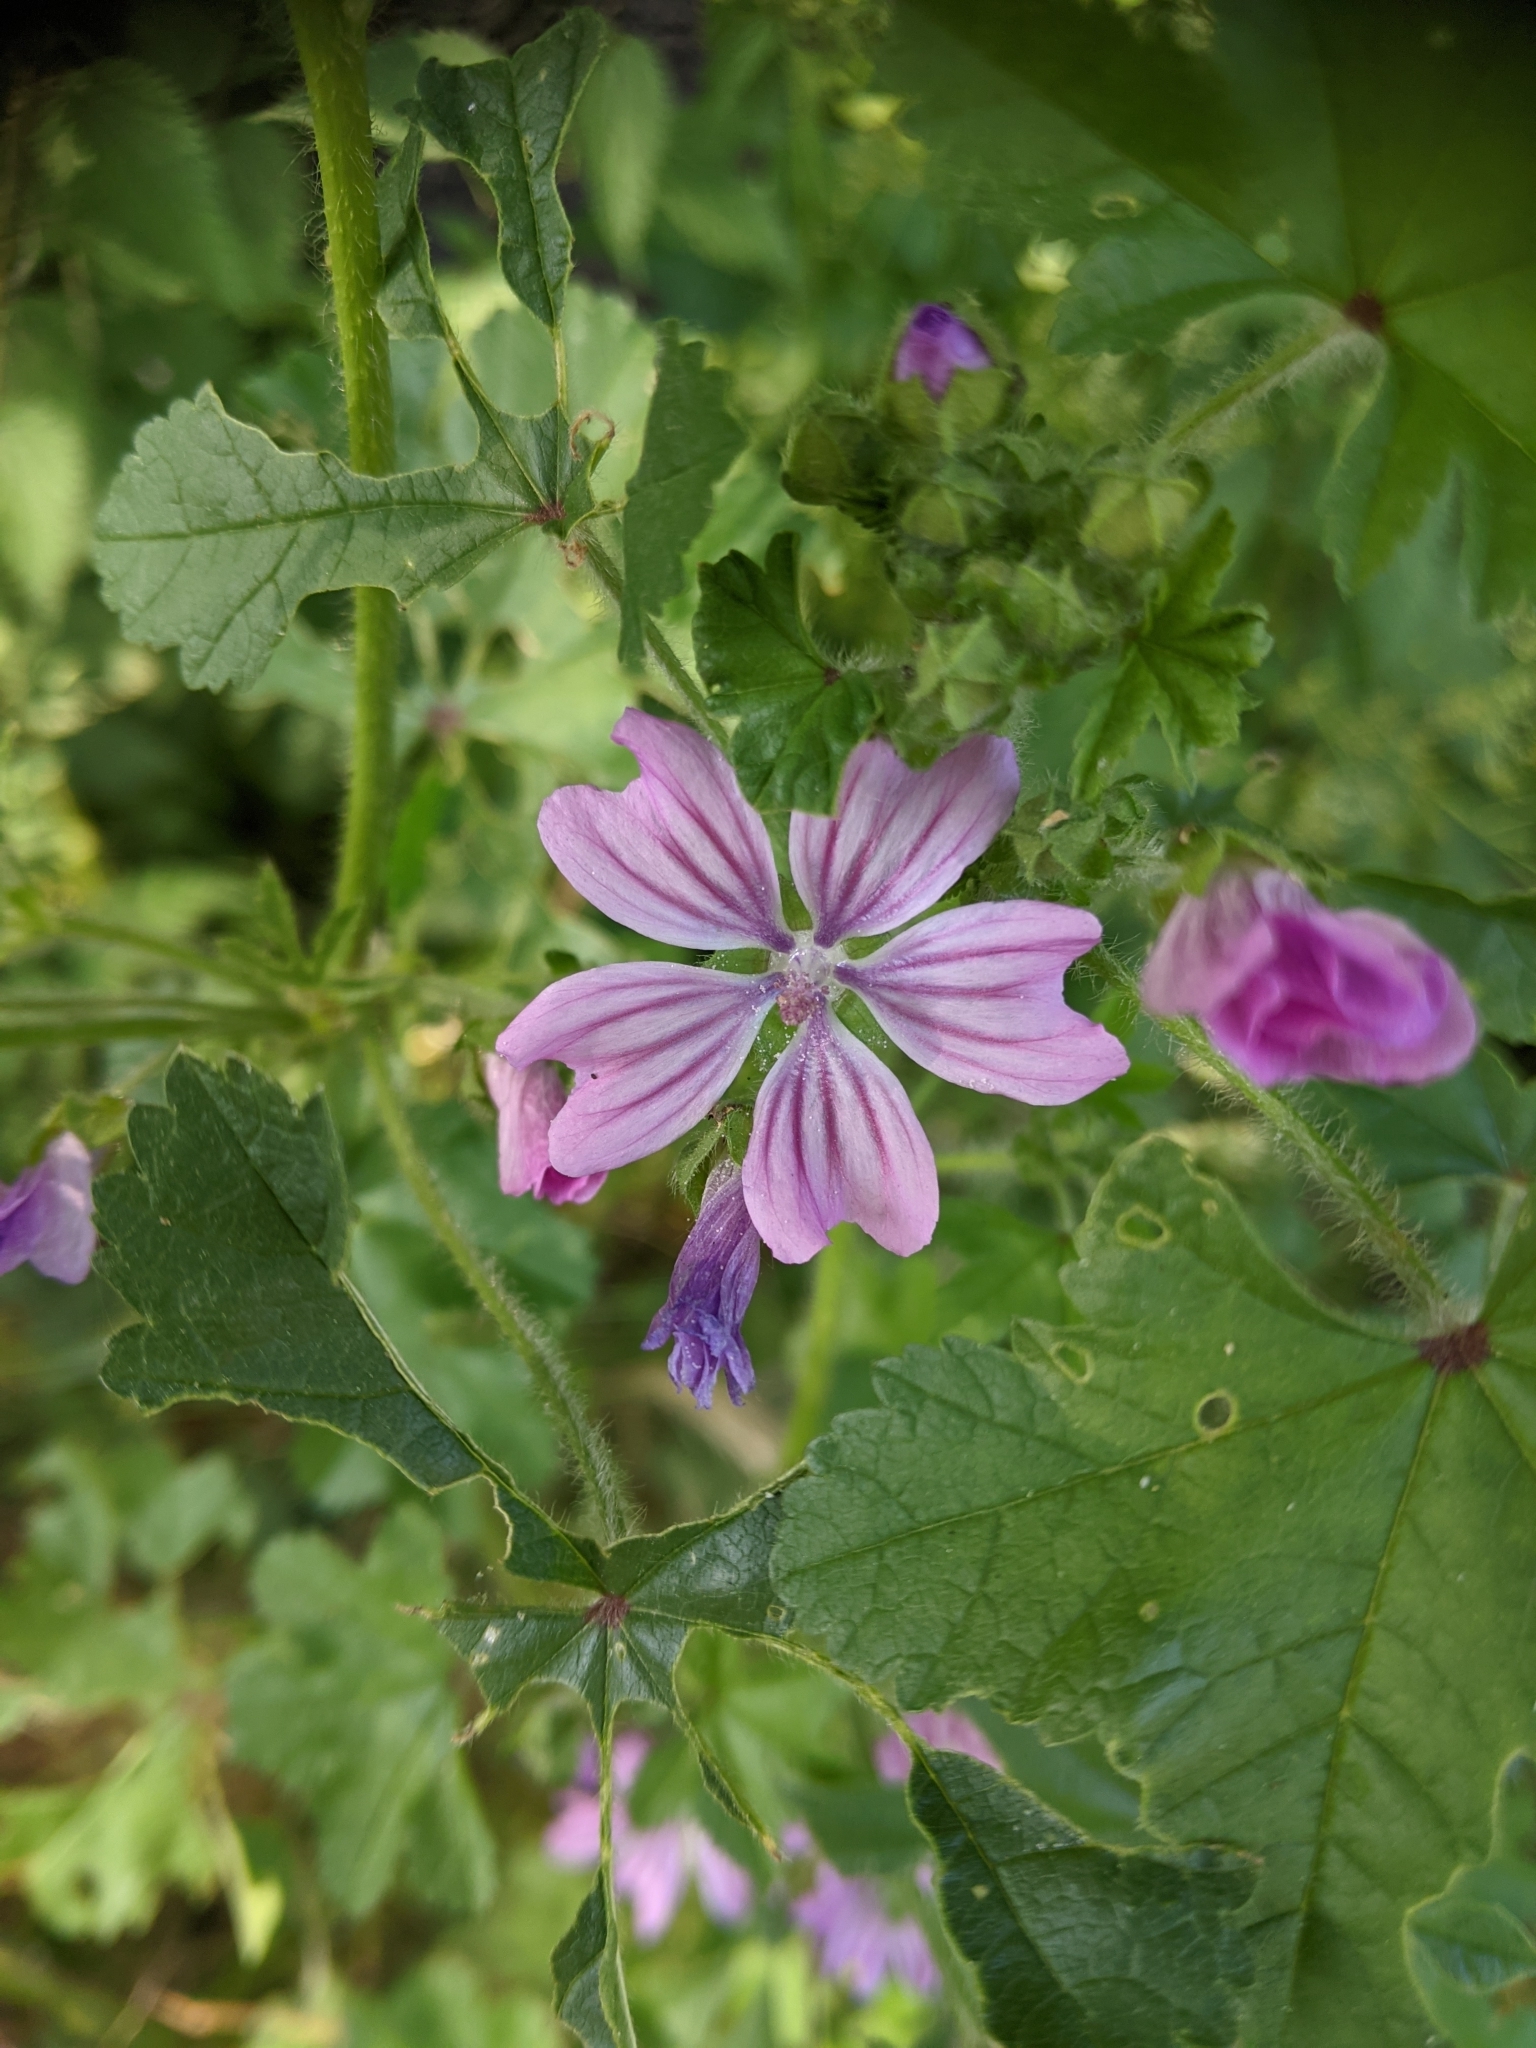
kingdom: Plantae
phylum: Tracheophyta
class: Magnoliopsida
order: Malvales
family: Malvaceae
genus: Malva
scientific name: Malva sylvestris
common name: Common mallow
